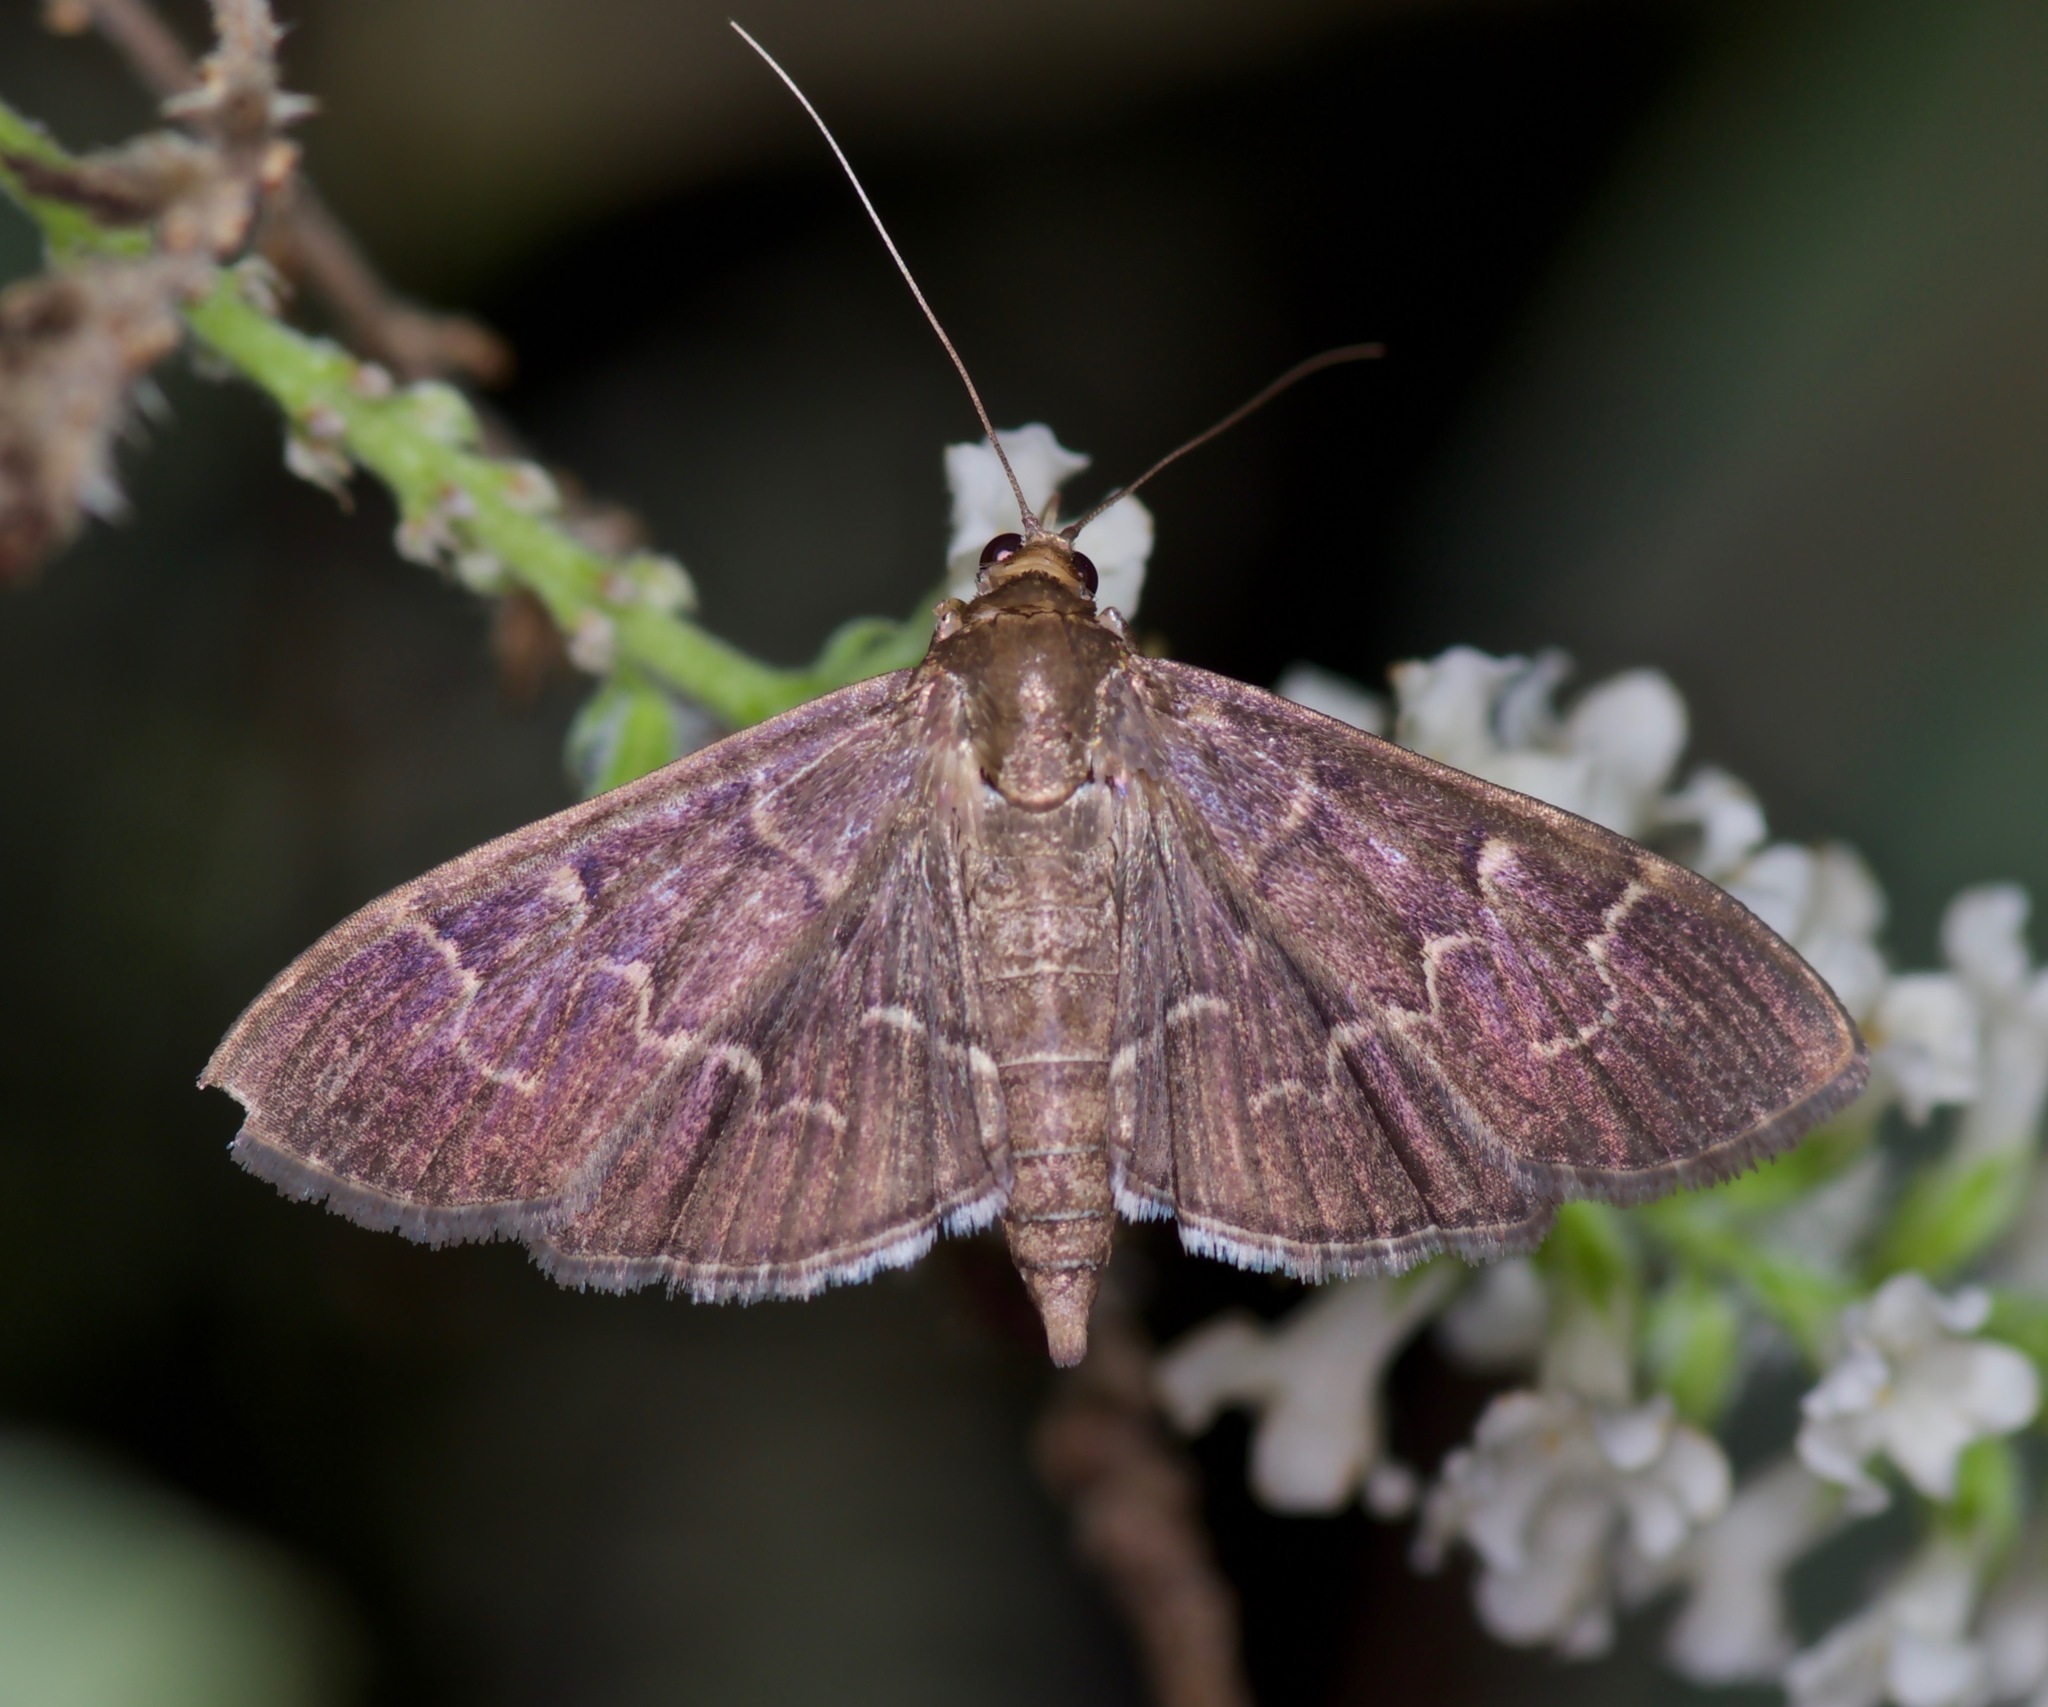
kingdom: Animalia
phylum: Arthropoda
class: Insecta
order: Lepidoptera
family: Crambidae
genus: Pilocrocis
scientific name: Pilocrocis ramentalis
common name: Scraped pilocrocis
